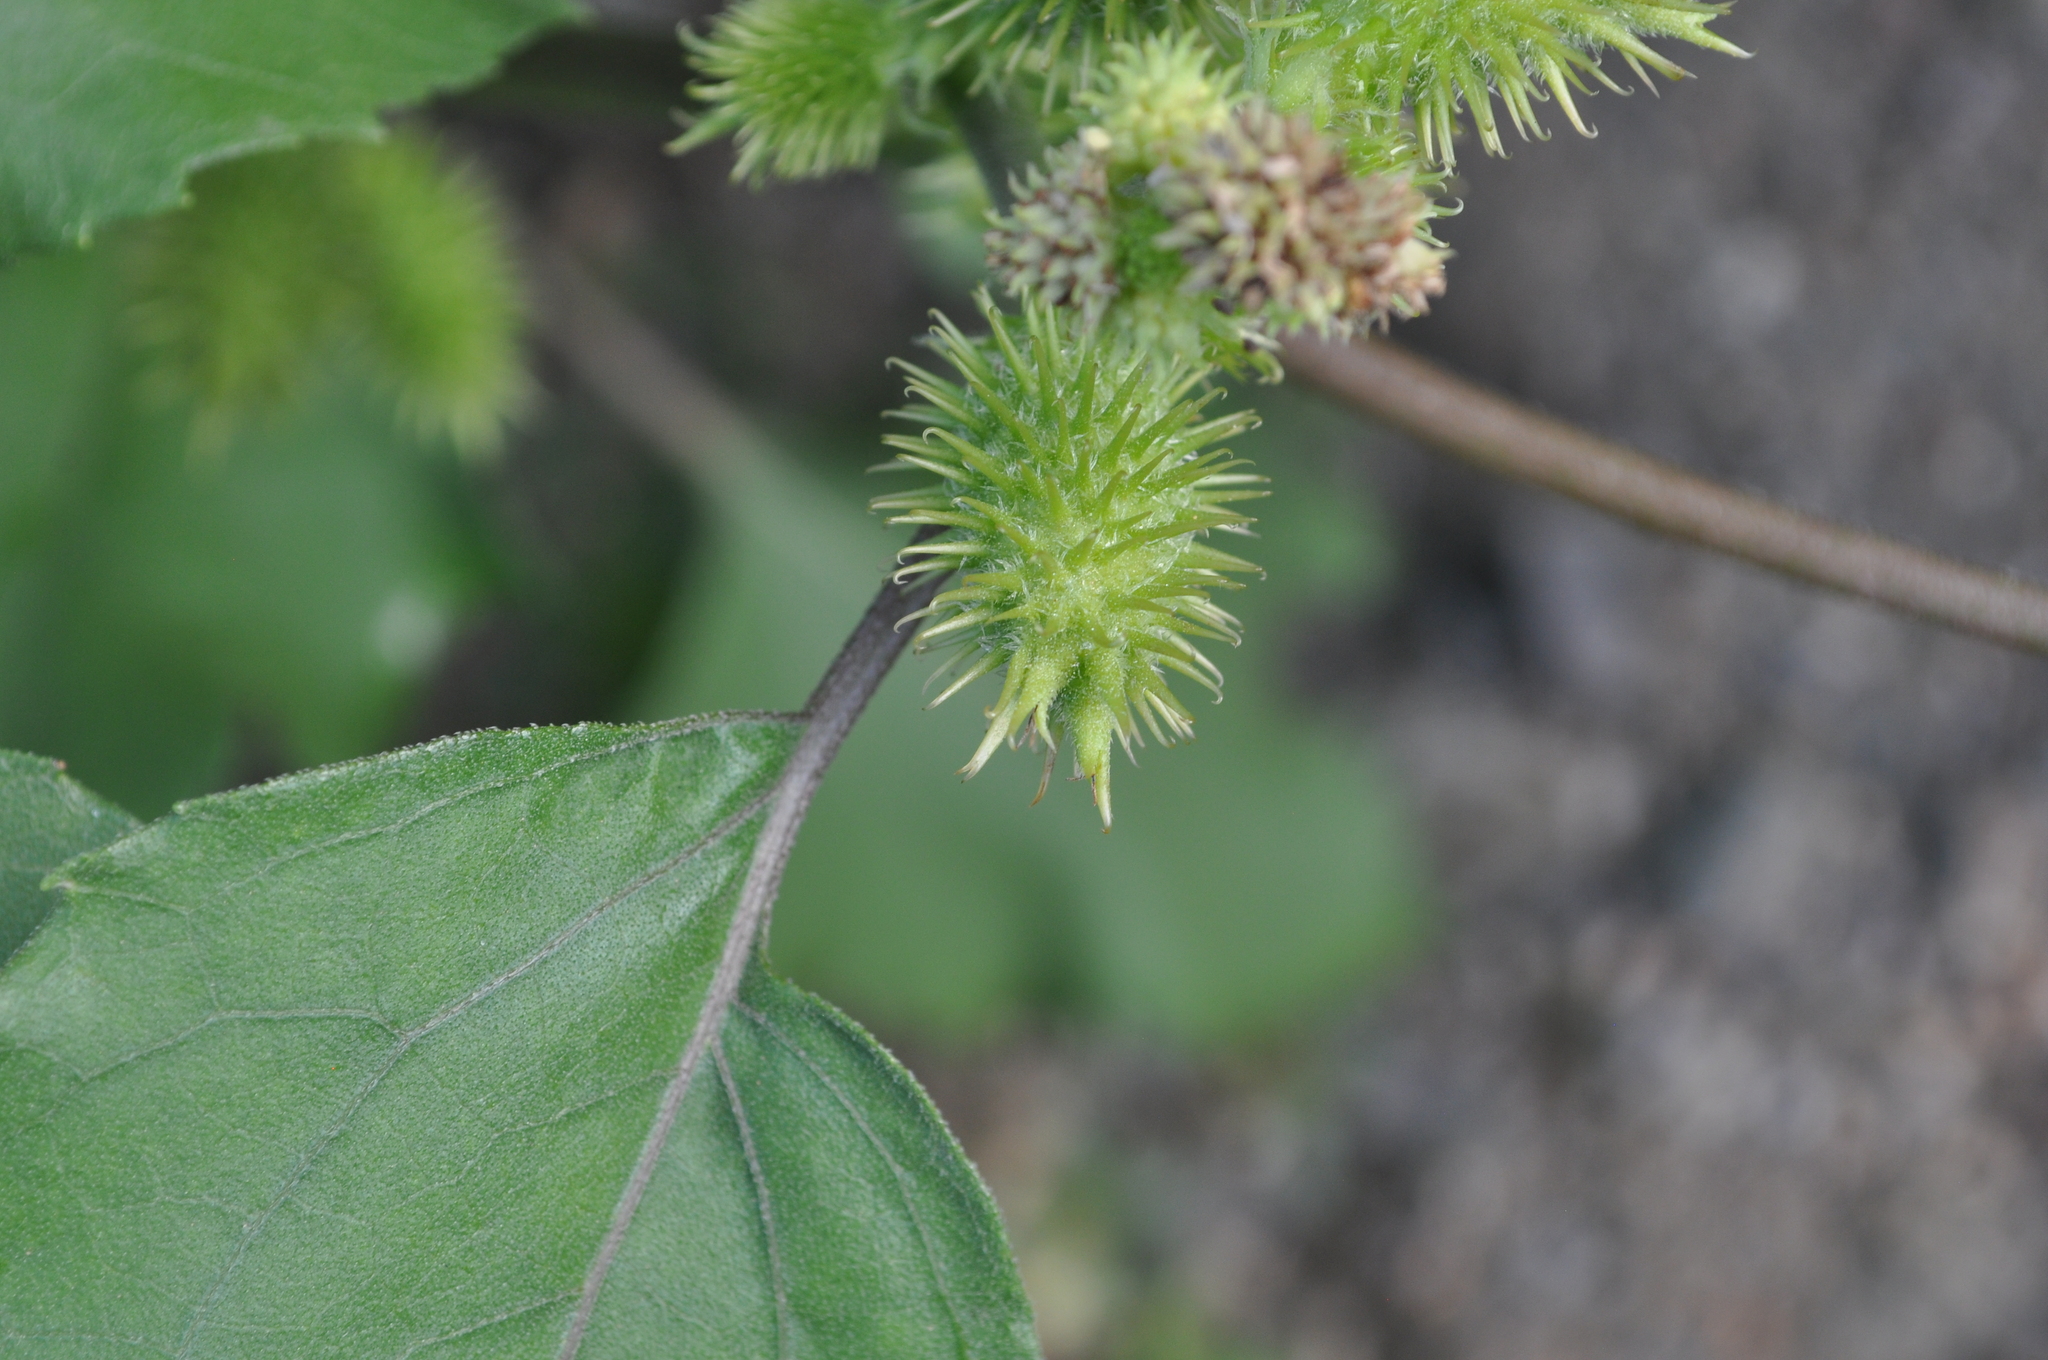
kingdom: Plantae
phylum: Tracheophyta
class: Magnoliopsida
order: Asterales
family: Asteraceae
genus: Xanthium
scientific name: Xanthium orientale
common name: Californian burr
